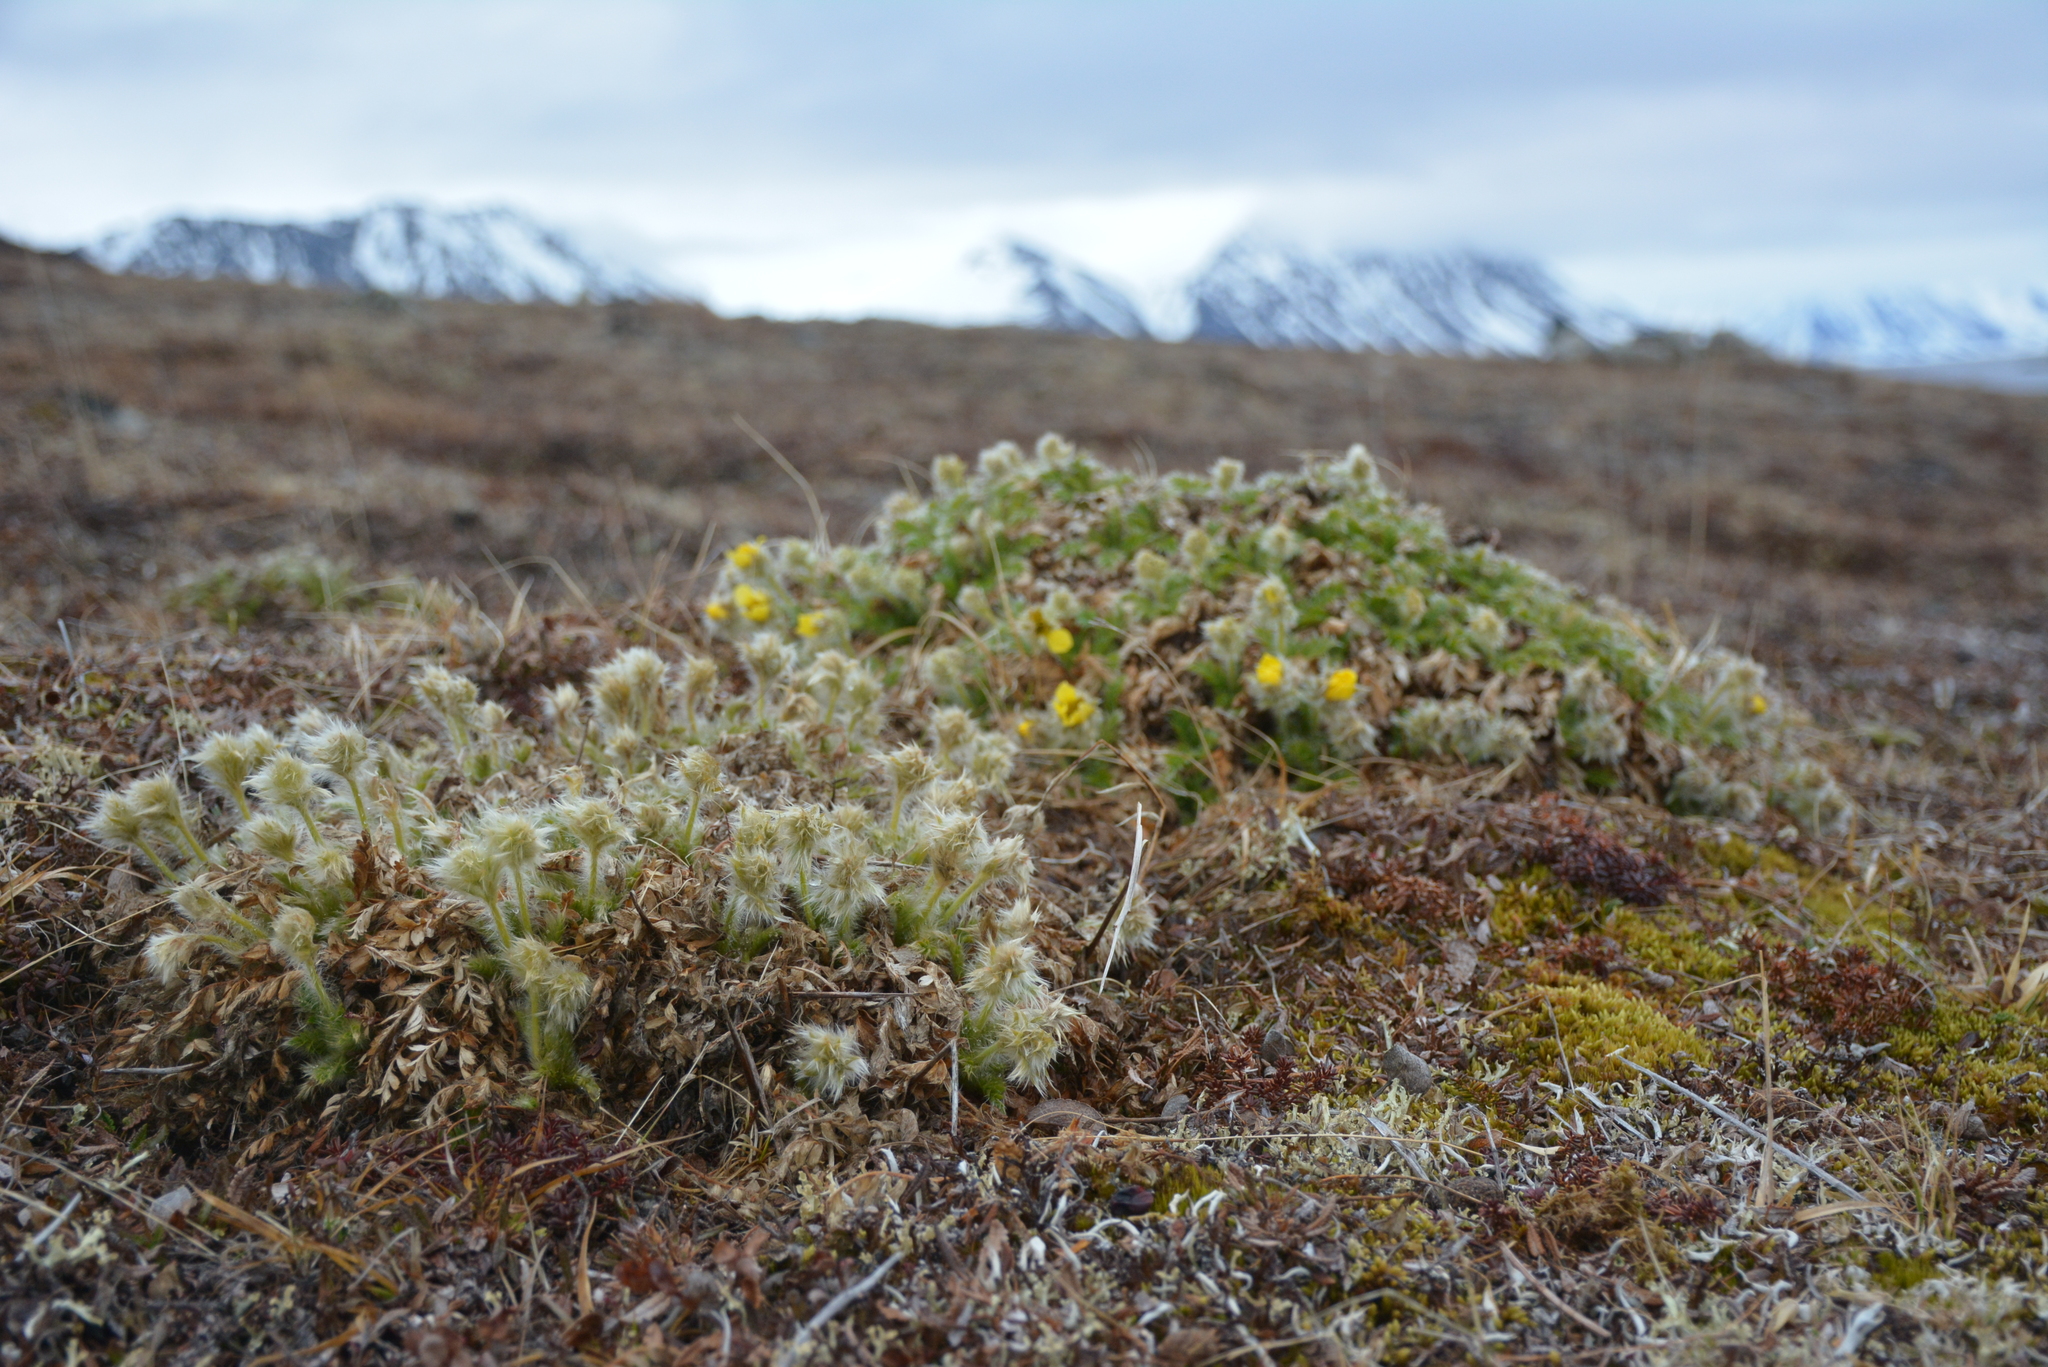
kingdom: Plantae
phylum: Tracheophyta
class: Magnoliopsida
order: Rosales
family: Rosaceae
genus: Geum
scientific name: Geum glaciale
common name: Glacier avens
